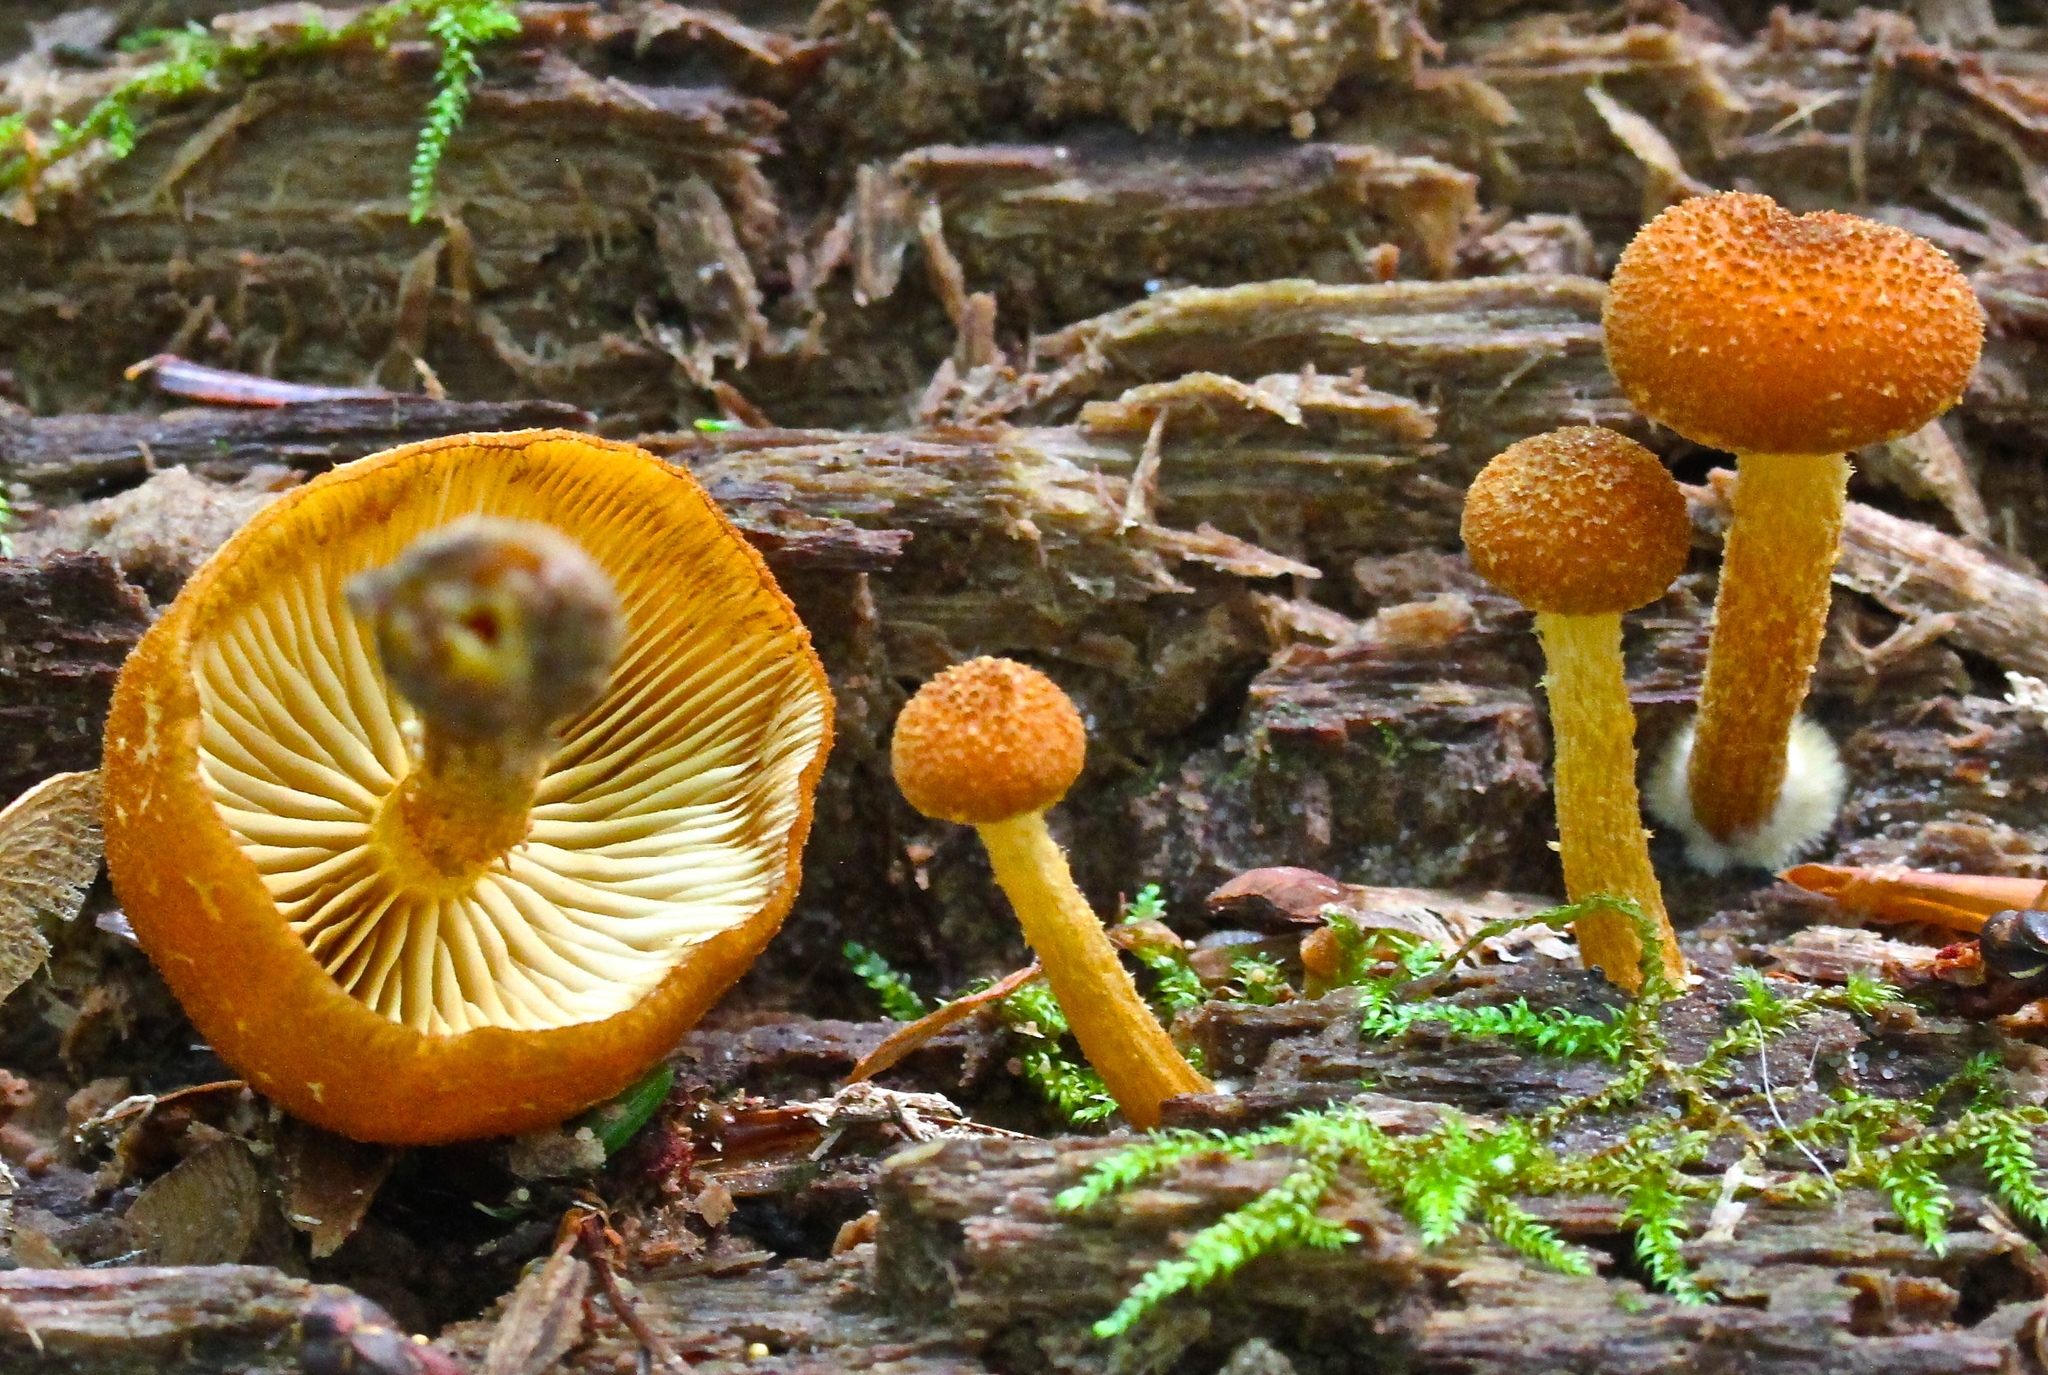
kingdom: Fungi
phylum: Basidiomycota
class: Agaricomycetes
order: Agaricales
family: Strophariaceae
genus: Pholiota
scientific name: Pholiota granulosa
